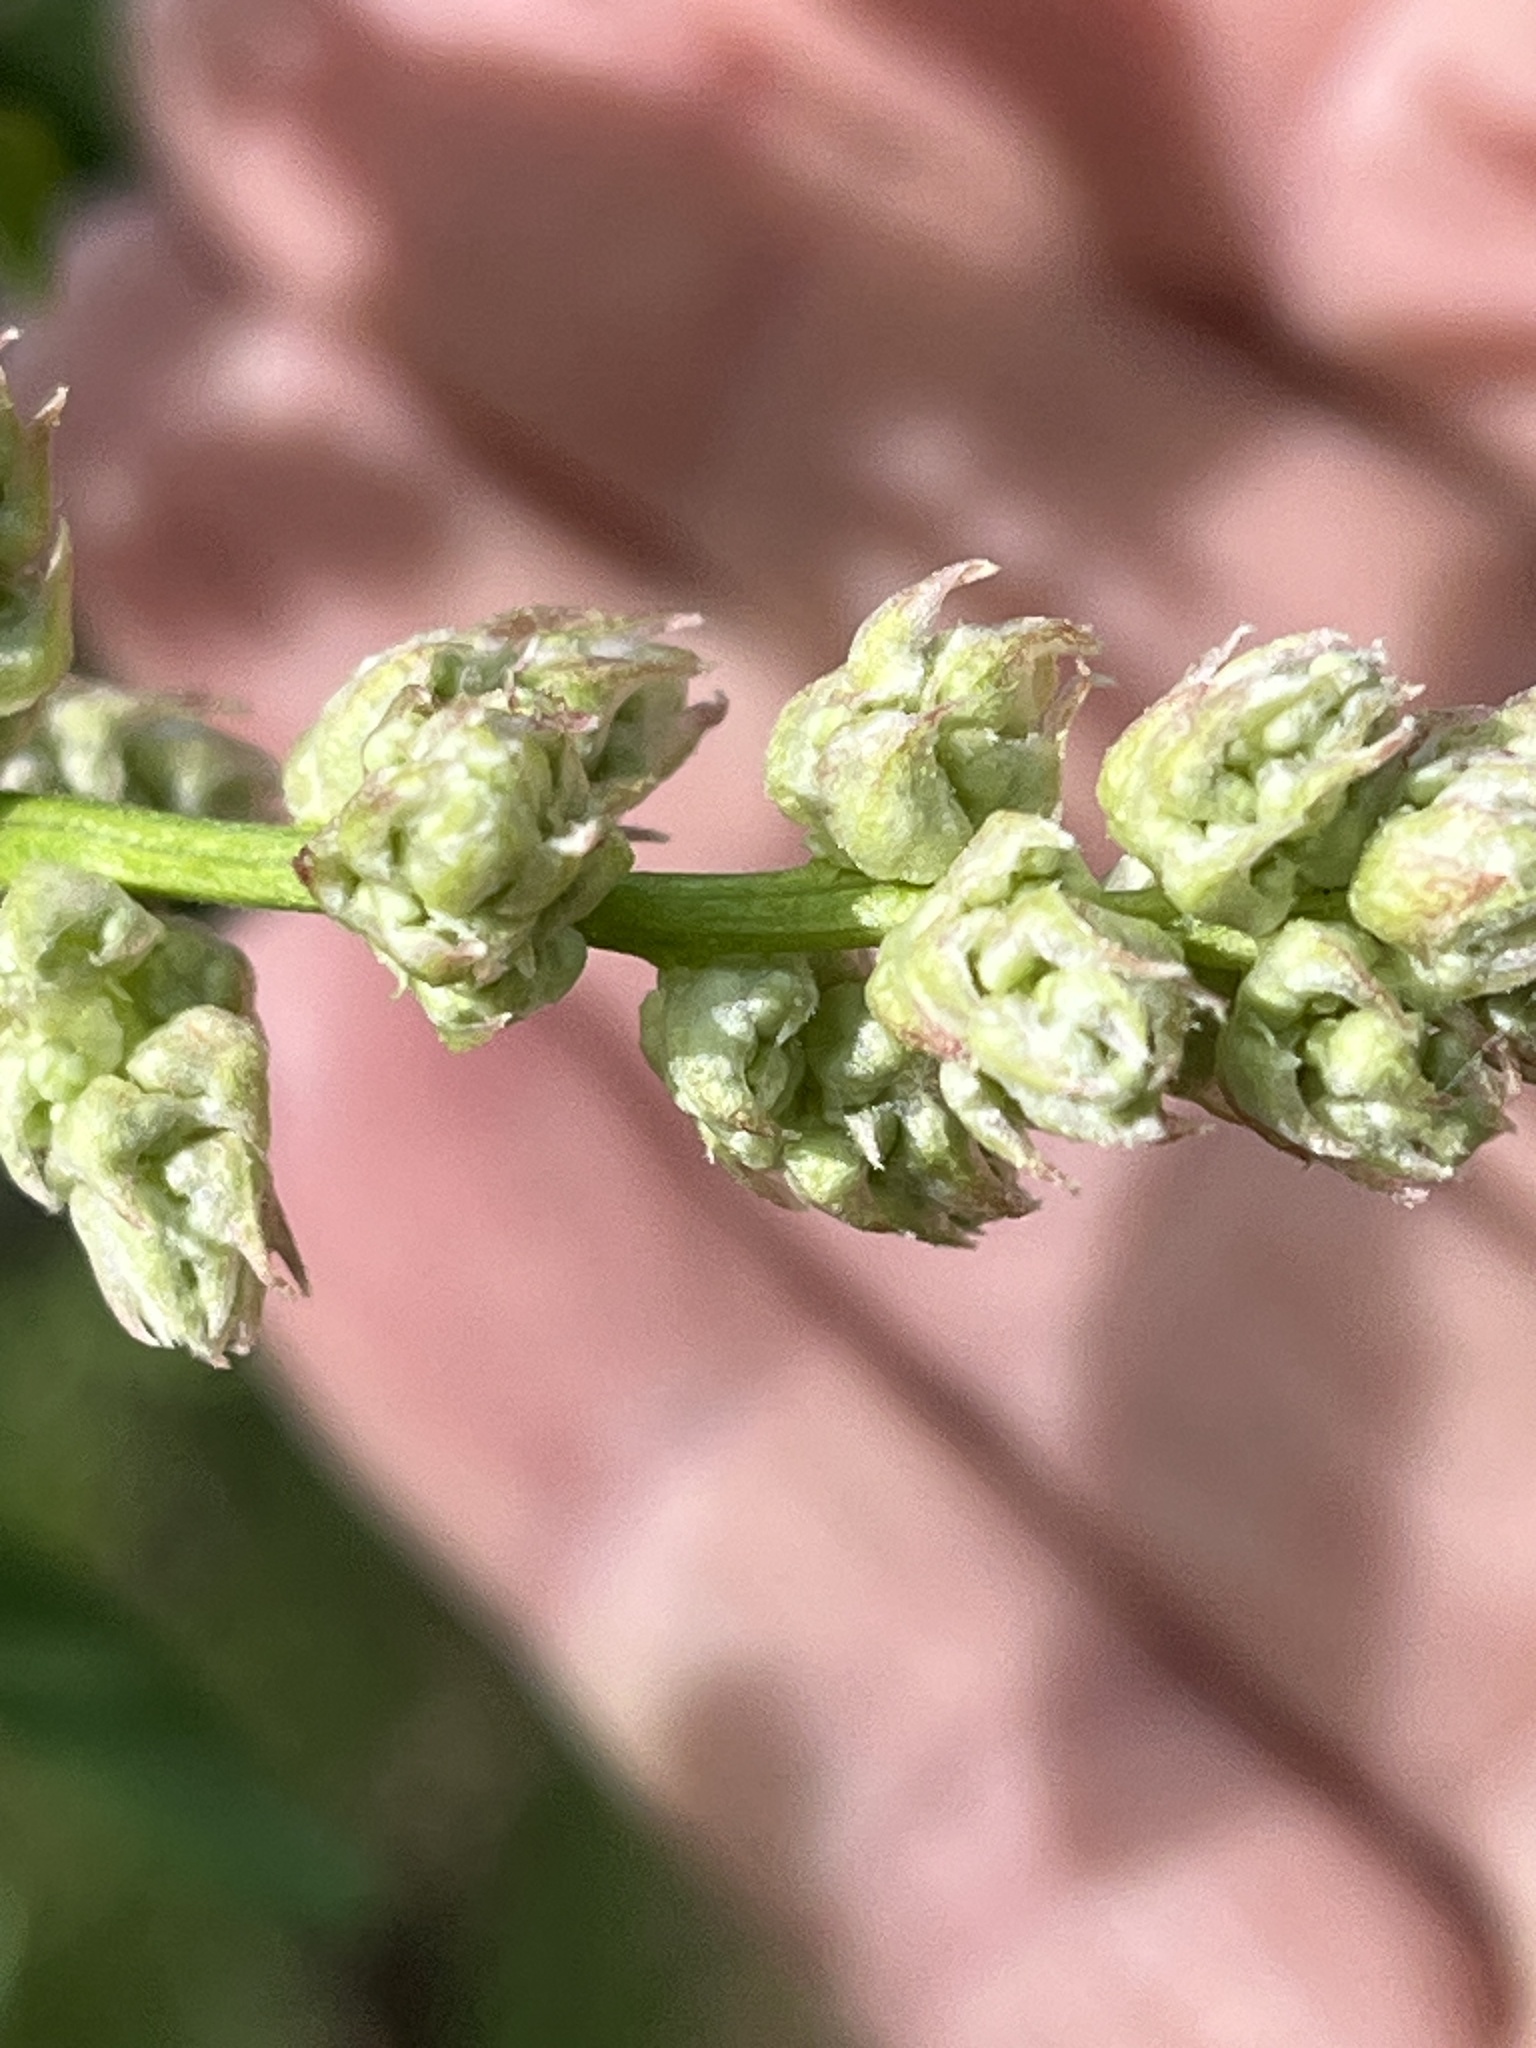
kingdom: Plantae
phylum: Tracheophyta
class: Magnoliopsida
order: Rosales
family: Rhamnaceae
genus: Ceanothus
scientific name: Ceanothus integerrimus
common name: Deerbrush ceanothus
